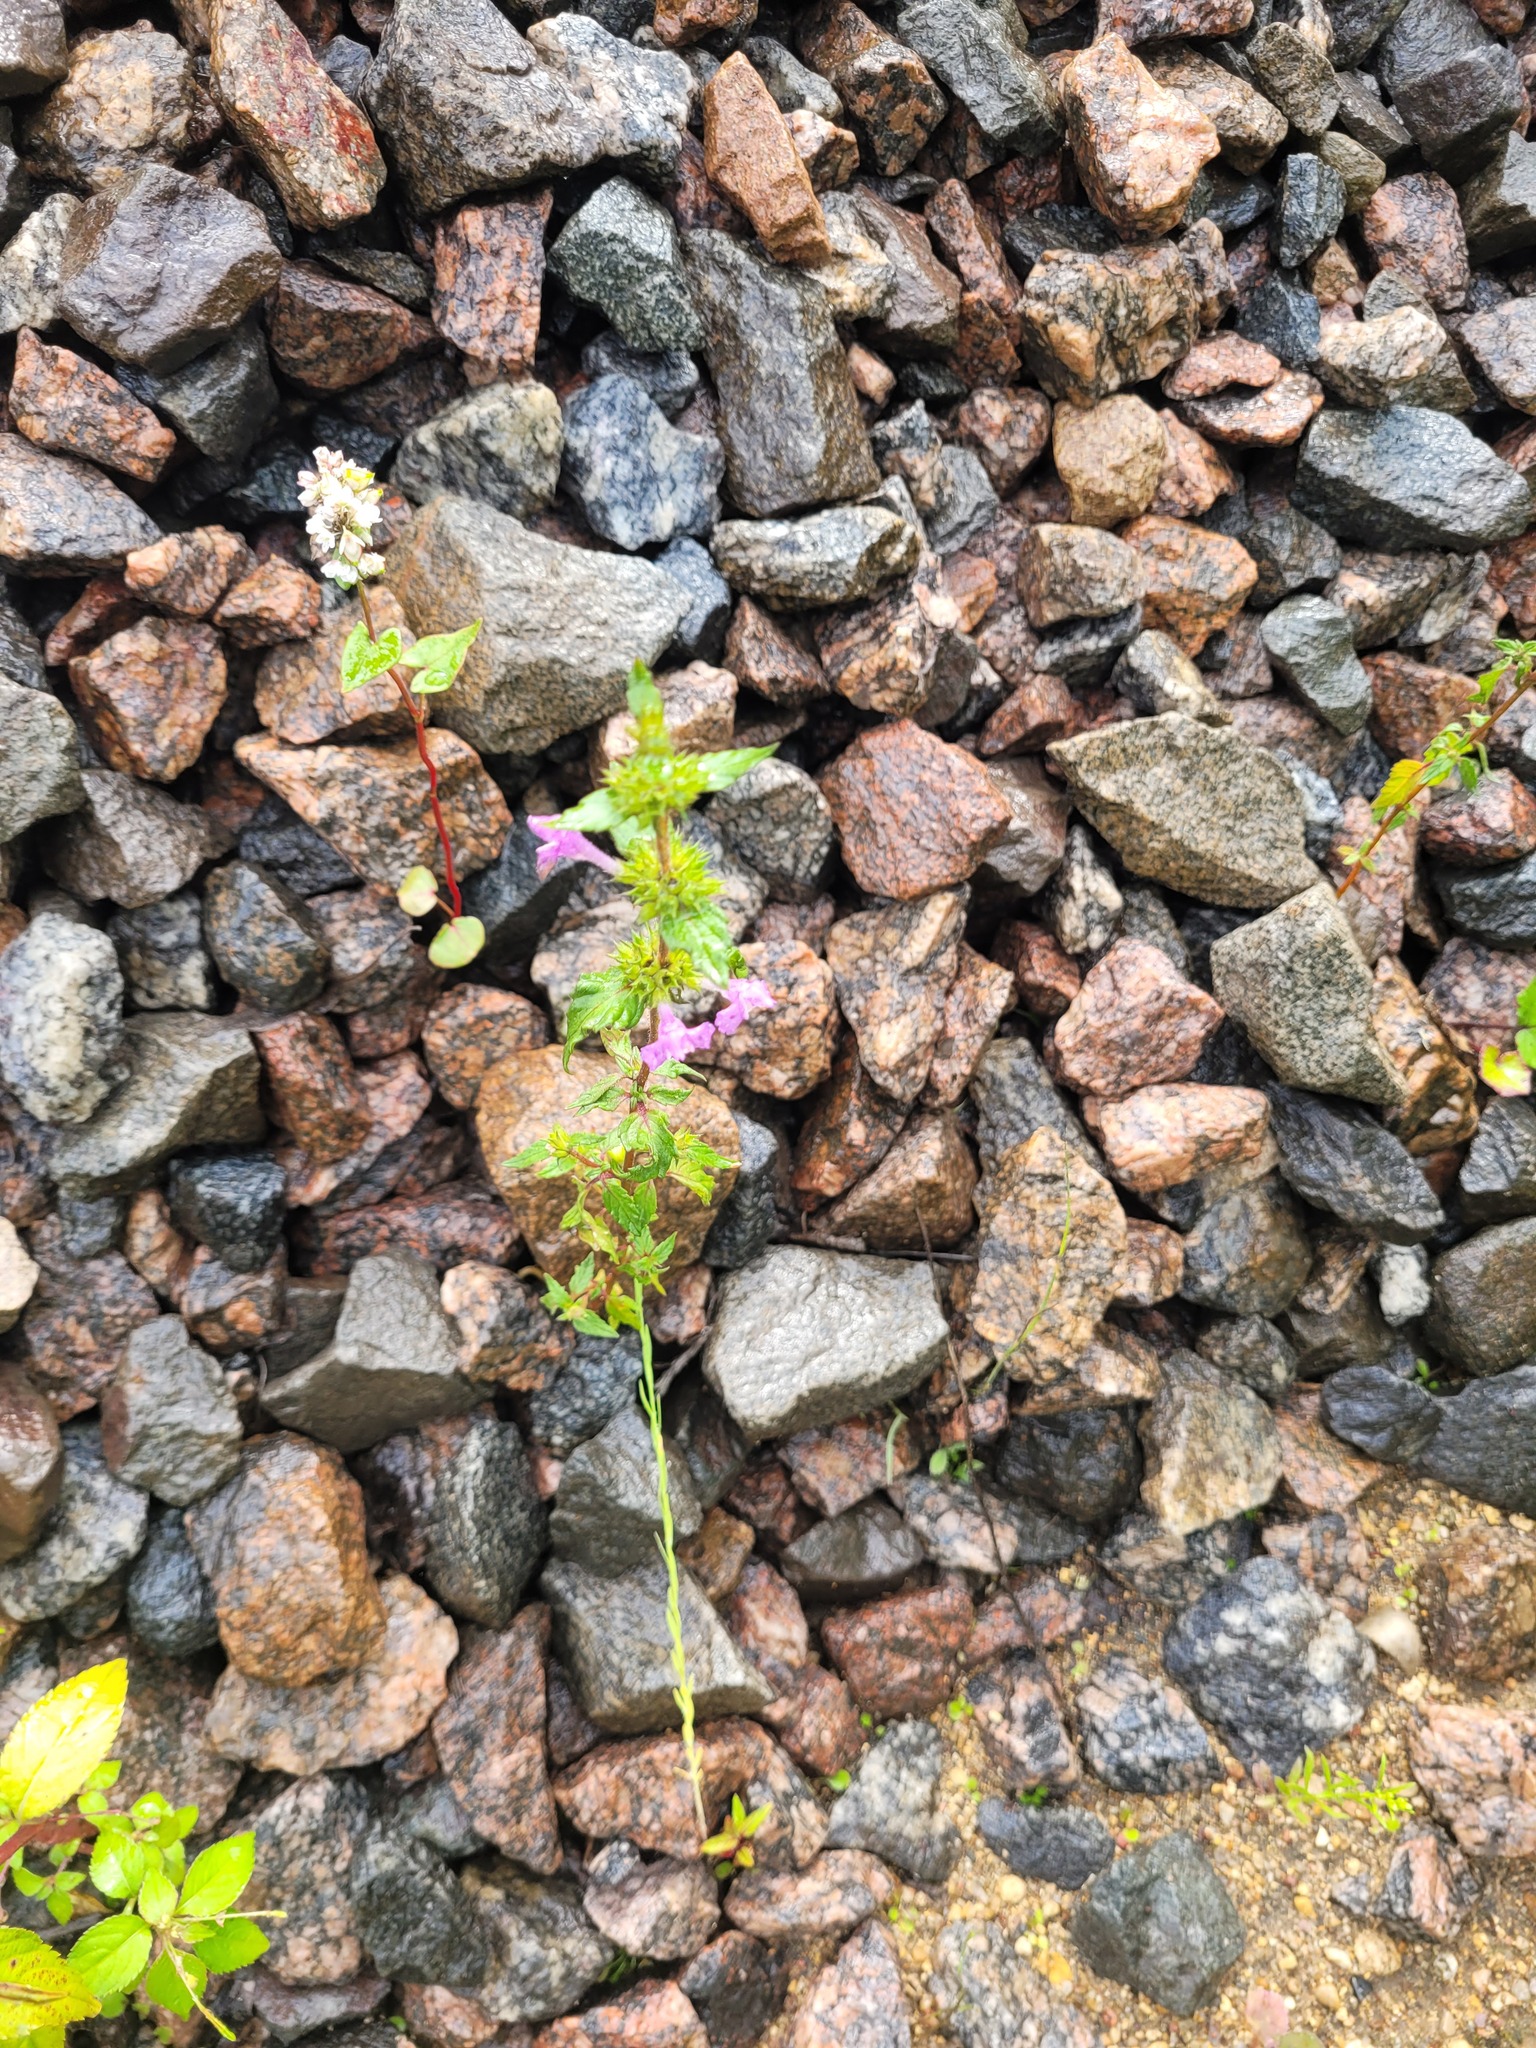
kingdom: Plantae
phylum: Tracheophyta
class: Magnoliopsida
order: Lamiales
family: Lamiaceae
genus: Galeopsis
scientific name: Galeopsis ladanum
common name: Broad-leaved hemp-nettle
